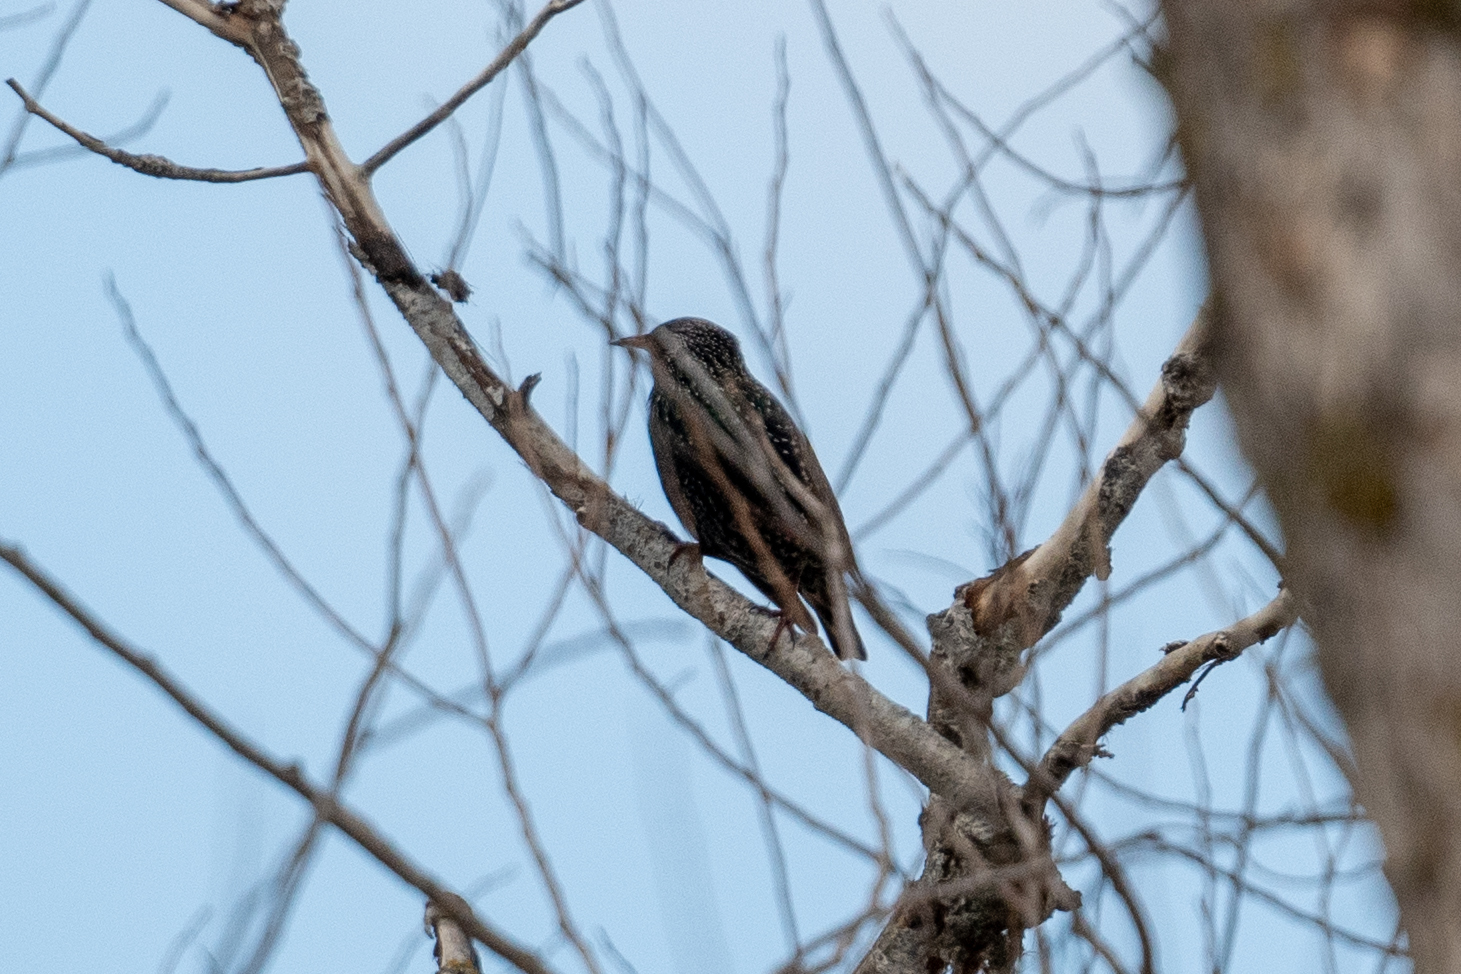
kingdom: Animalia
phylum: Chordata
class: Aves
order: Passeriformes
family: Sturnidae
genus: Sturnus
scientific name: Sturnus vulgaris
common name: Common starling
